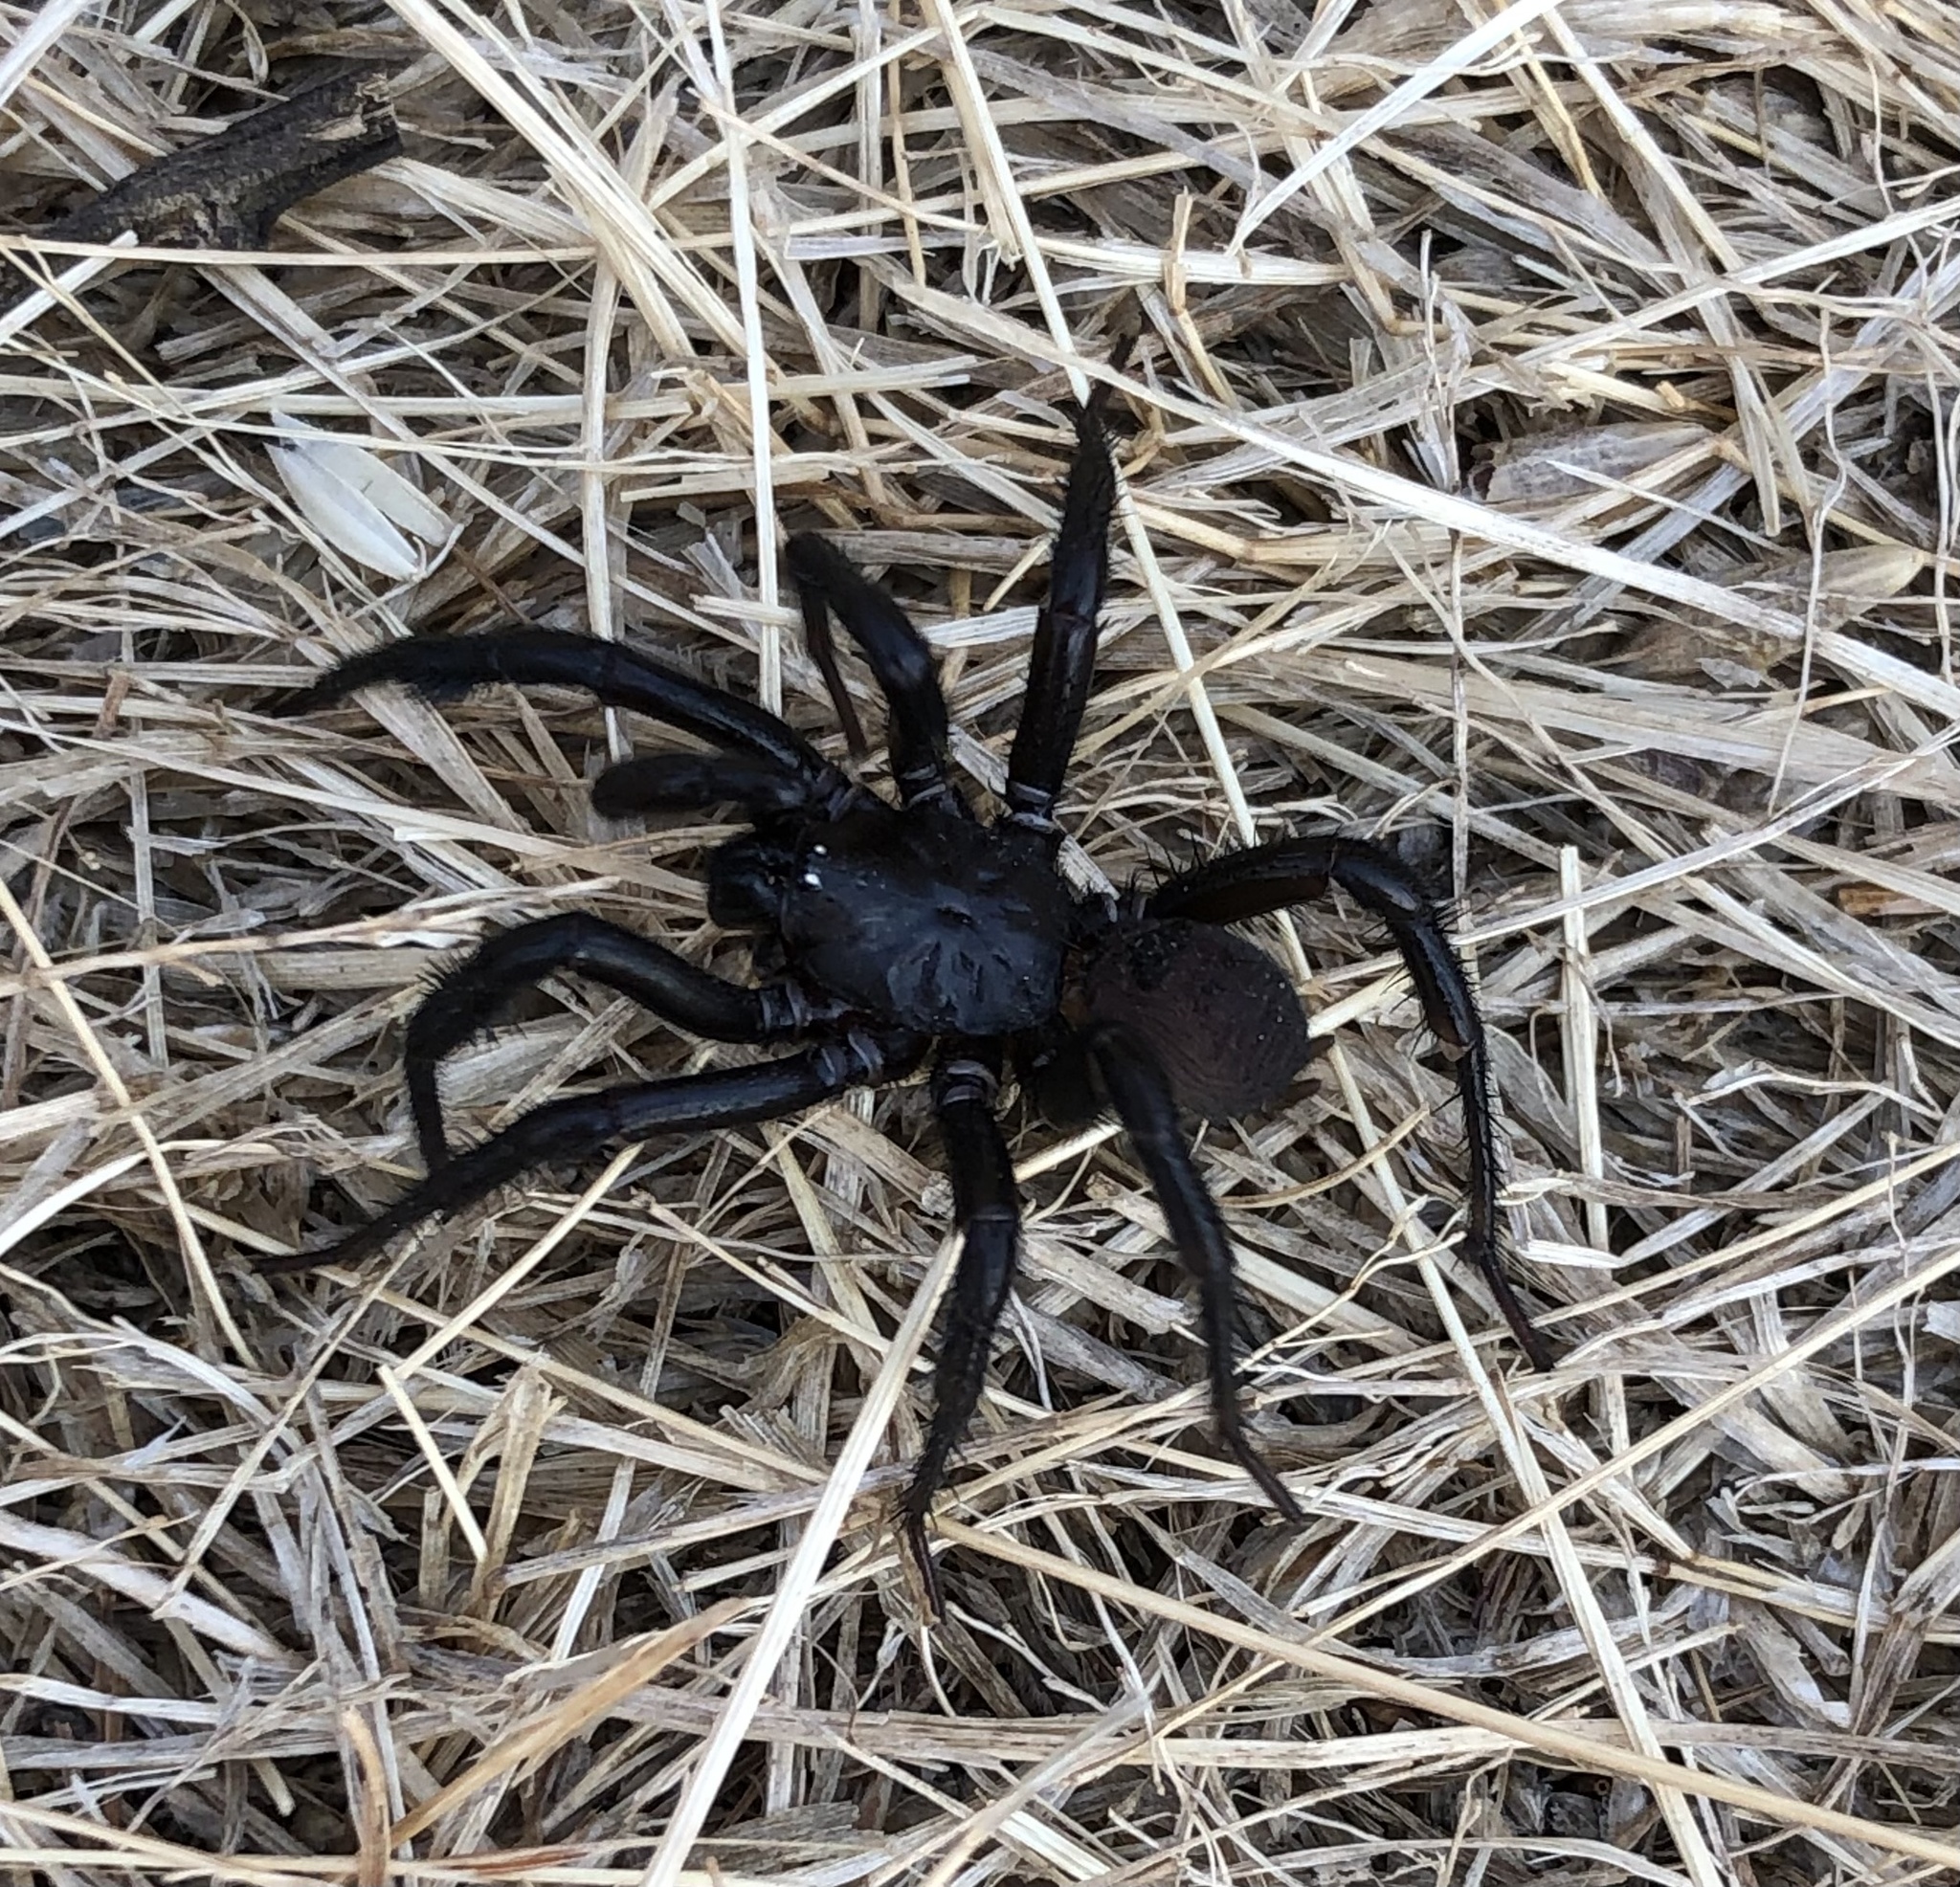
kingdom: Animalia
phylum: Arthropoda
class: Arachnida
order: Araneae
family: Antrodiaetidae
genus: Antrodiaetus
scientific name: Antrodiaetus pacificus
